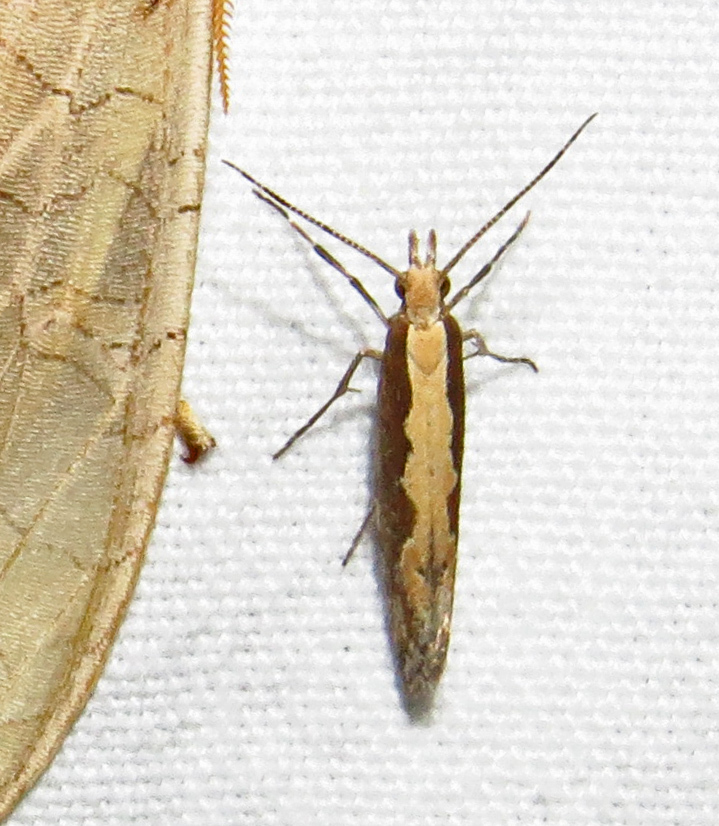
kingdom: Animalia
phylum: Arthropoda
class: Insecta
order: Lepidoptera
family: Plutellidae
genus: Plutella
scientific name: Plutella xylostella
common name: Diamond-back moth
